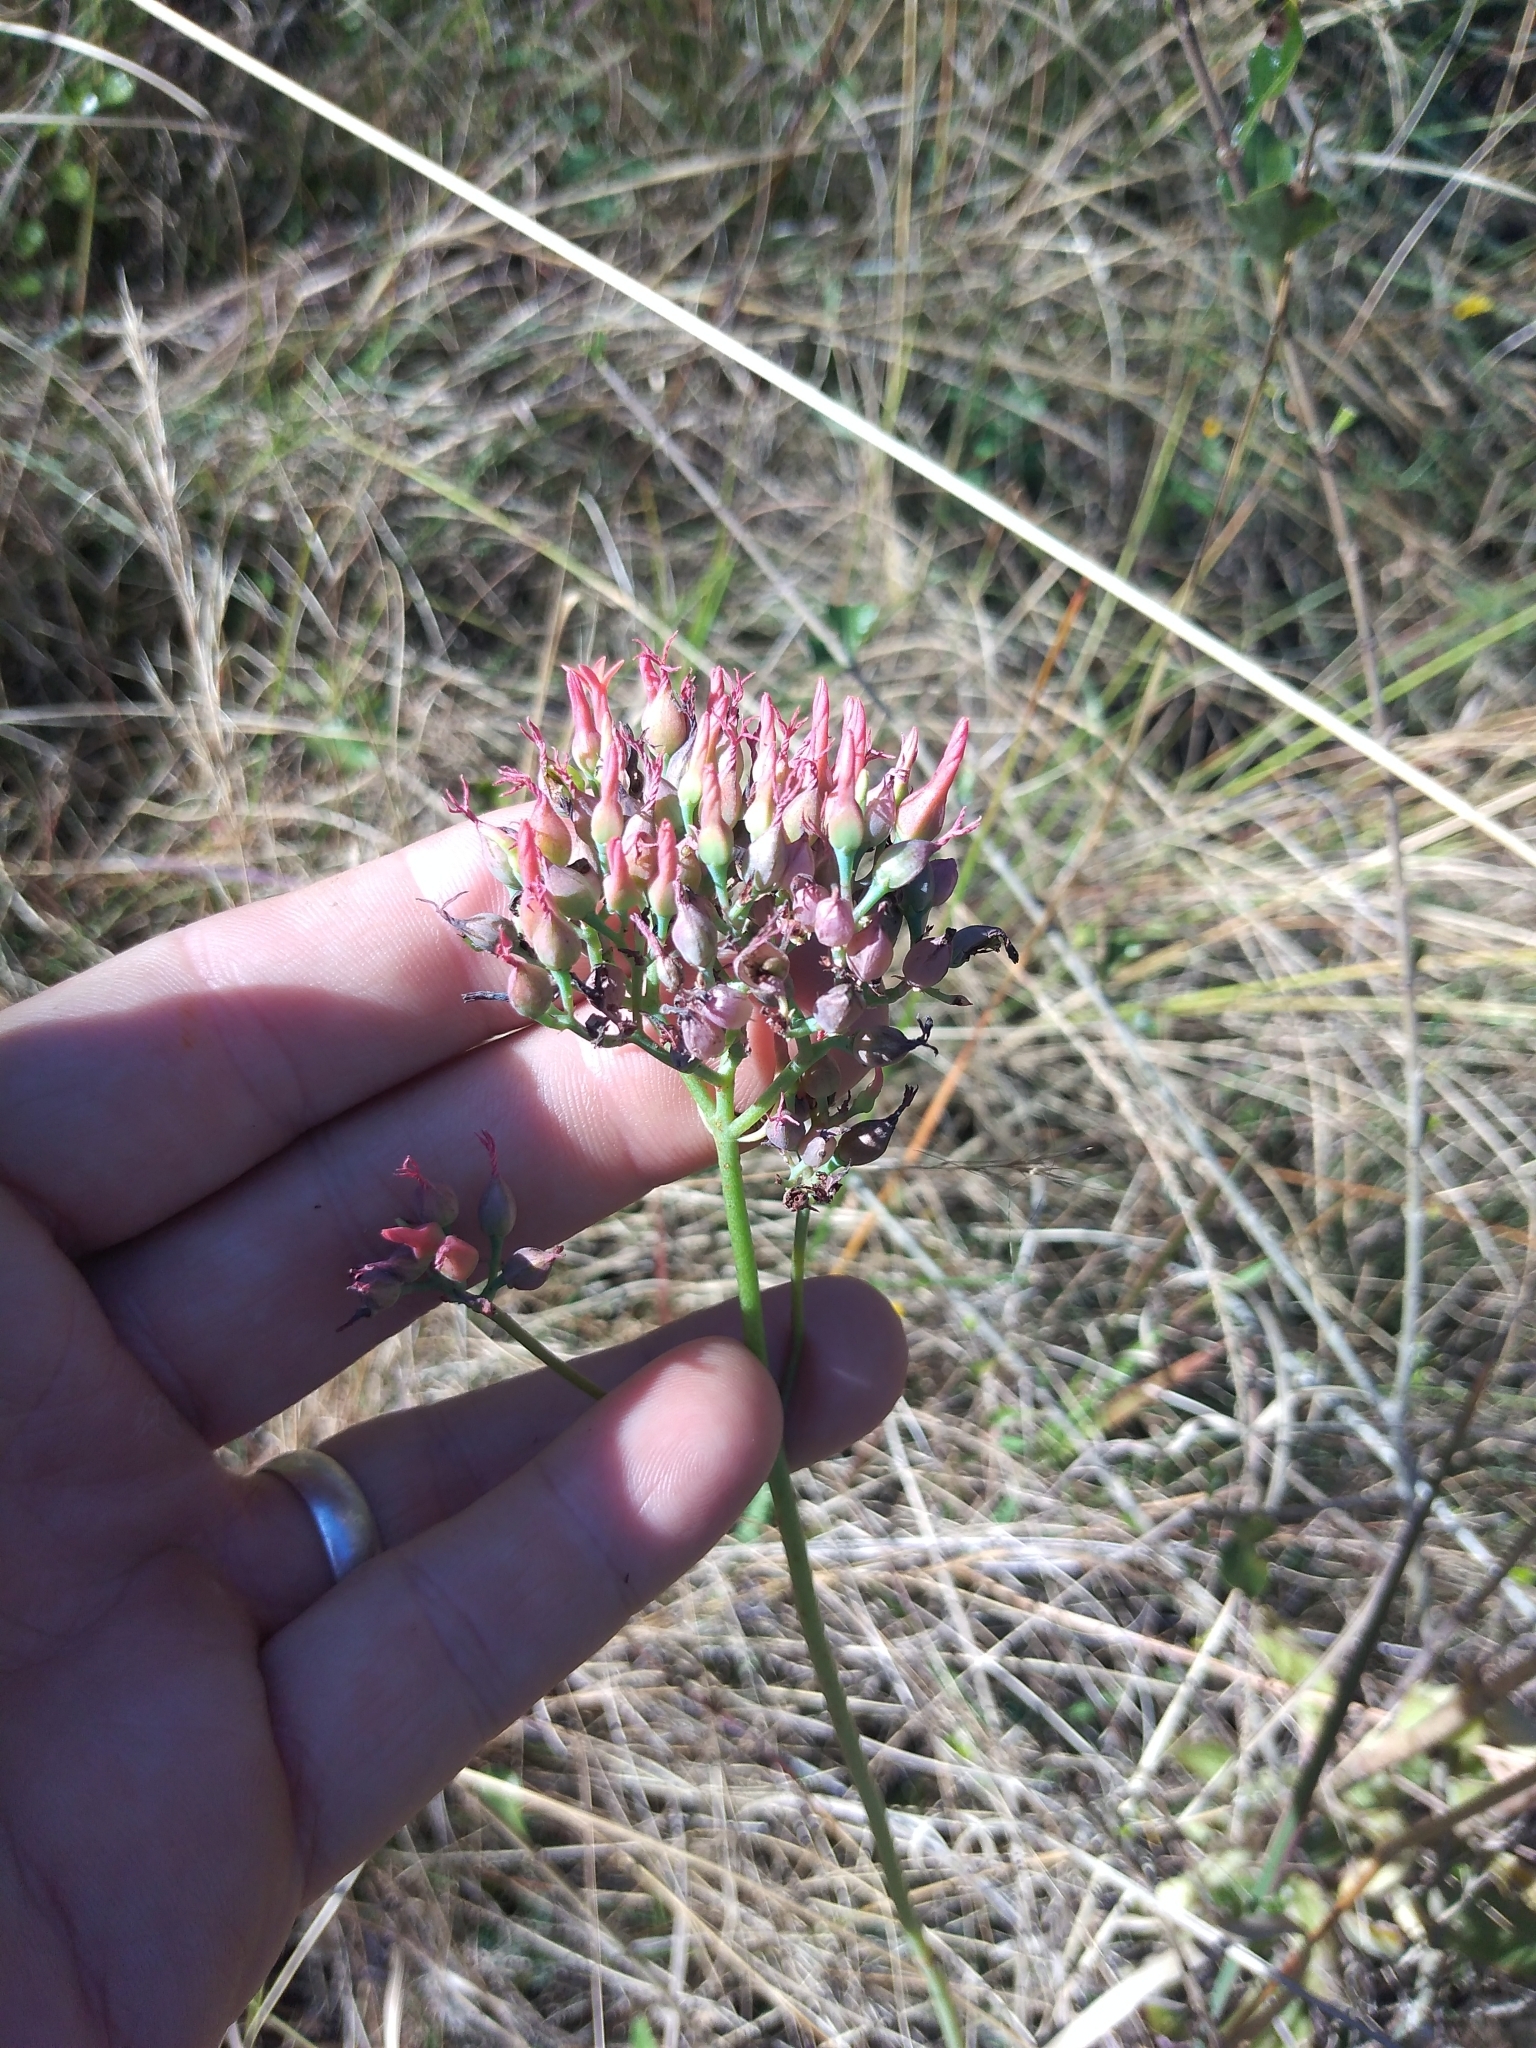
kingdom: Plantae
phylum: Tracheophyta
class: Magnoliopsida
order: Saxifragales
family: Crassulaceae
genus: Kalanchoe
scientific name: Kalanchoe rotundifolia
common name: Common kalanchoe
